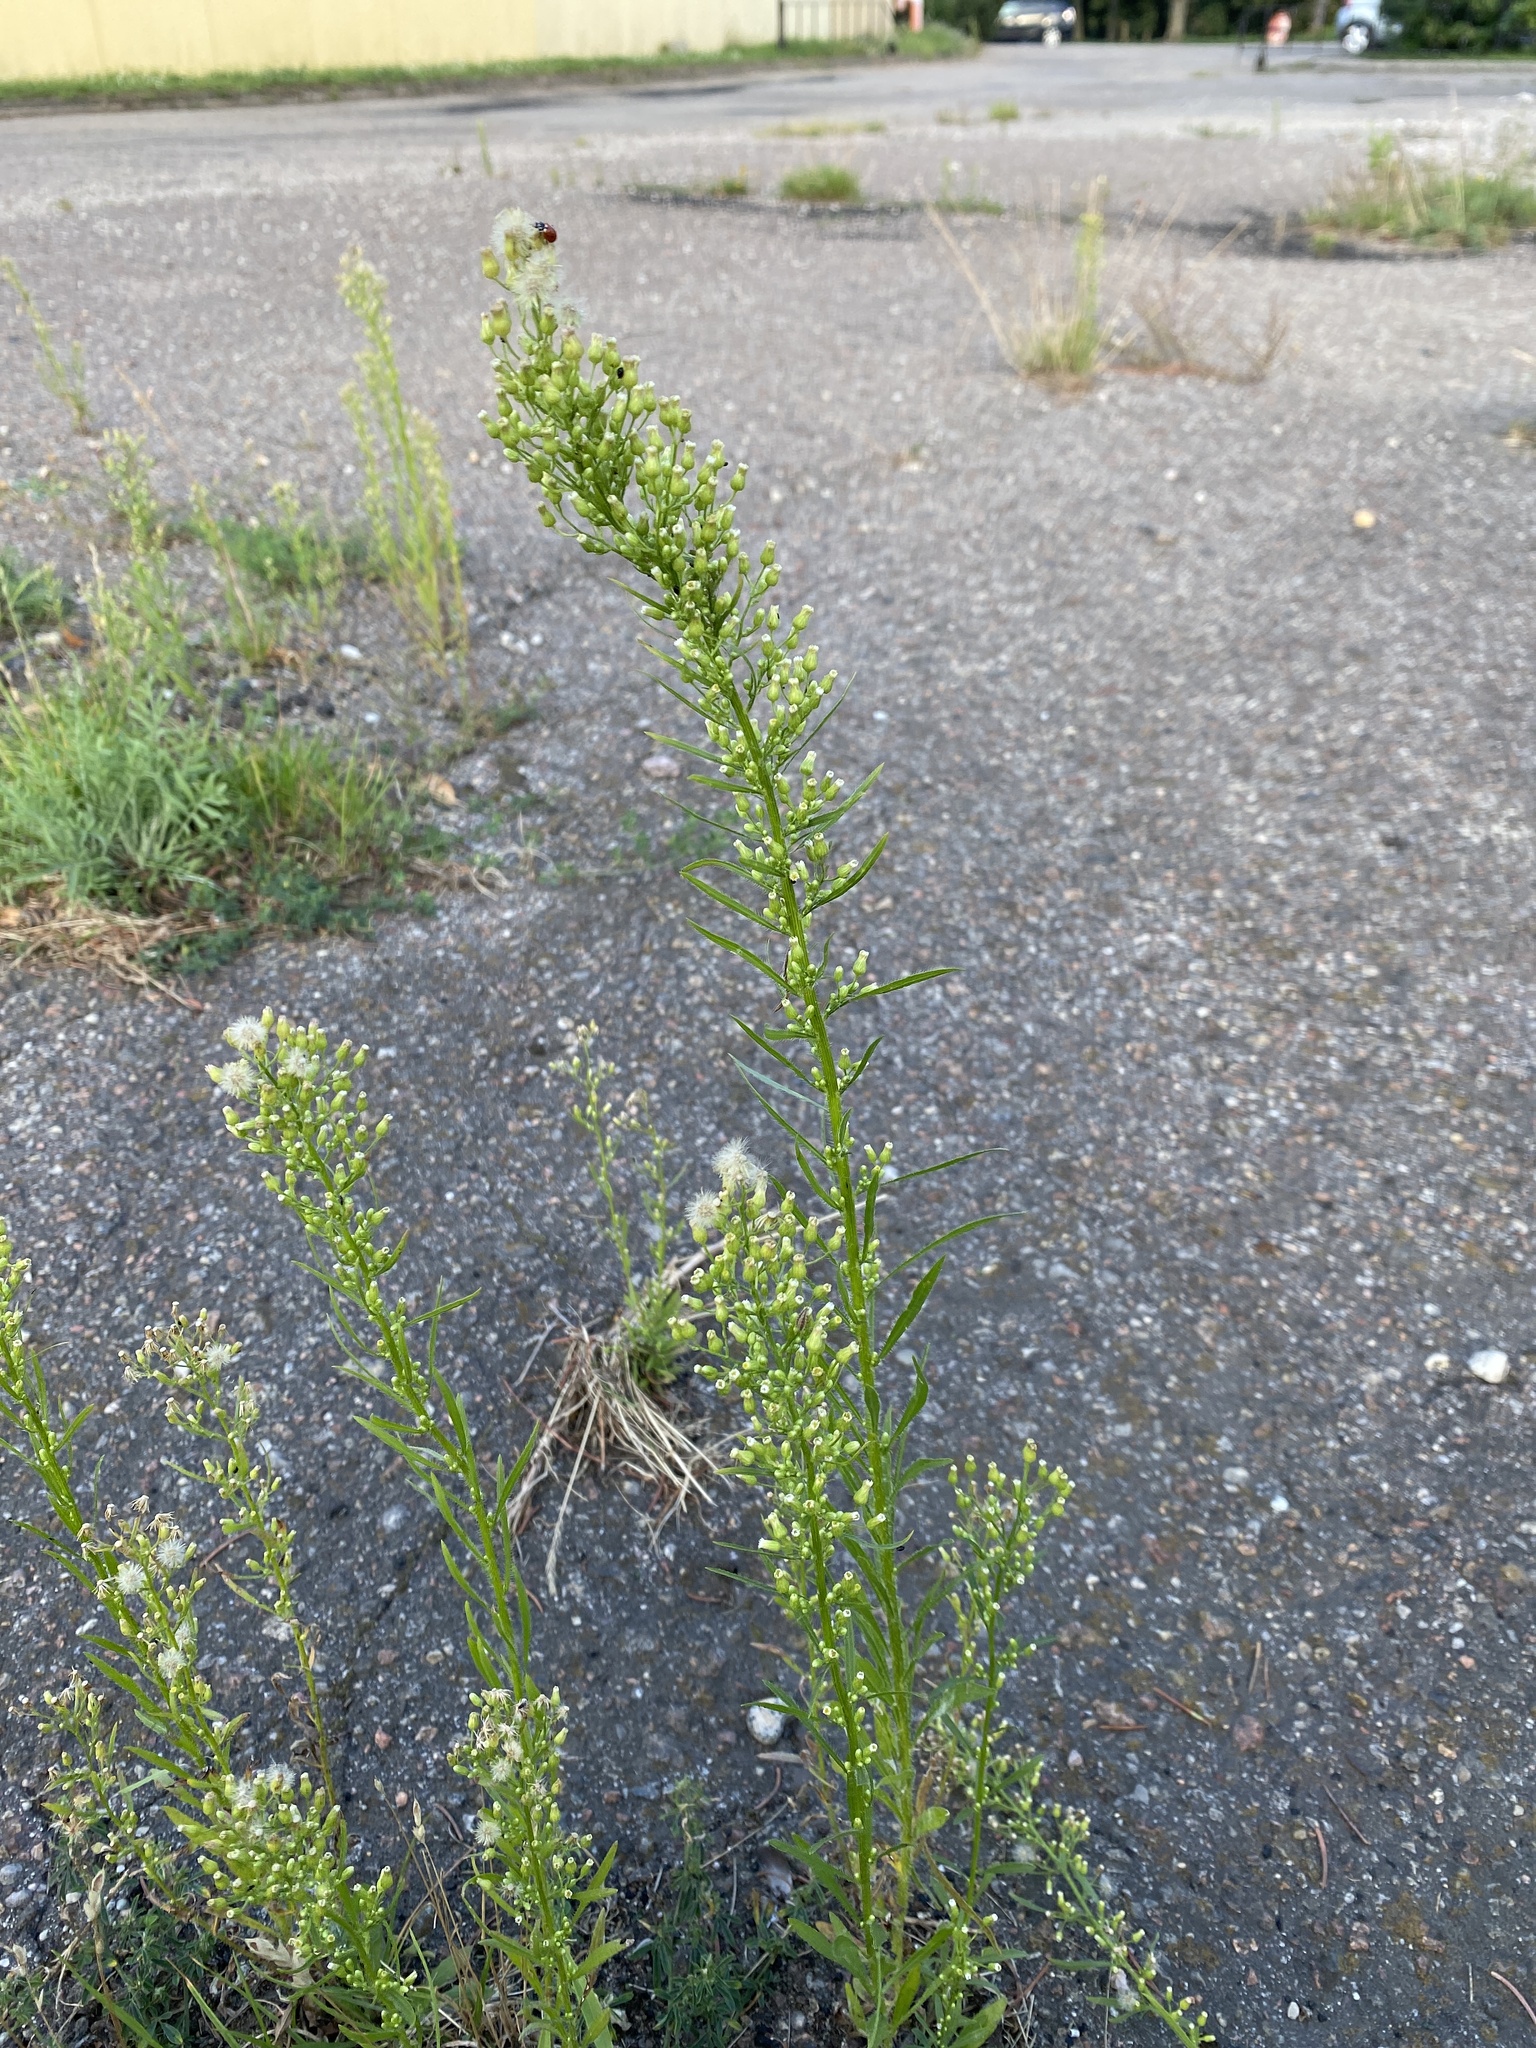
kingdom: Plantae
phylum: Tracheophyta
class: Magnoliopsida
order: Asterales
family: Asteraceae
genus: Erigeron
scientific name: Erigeron canadensis
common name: Canadian fleabane
